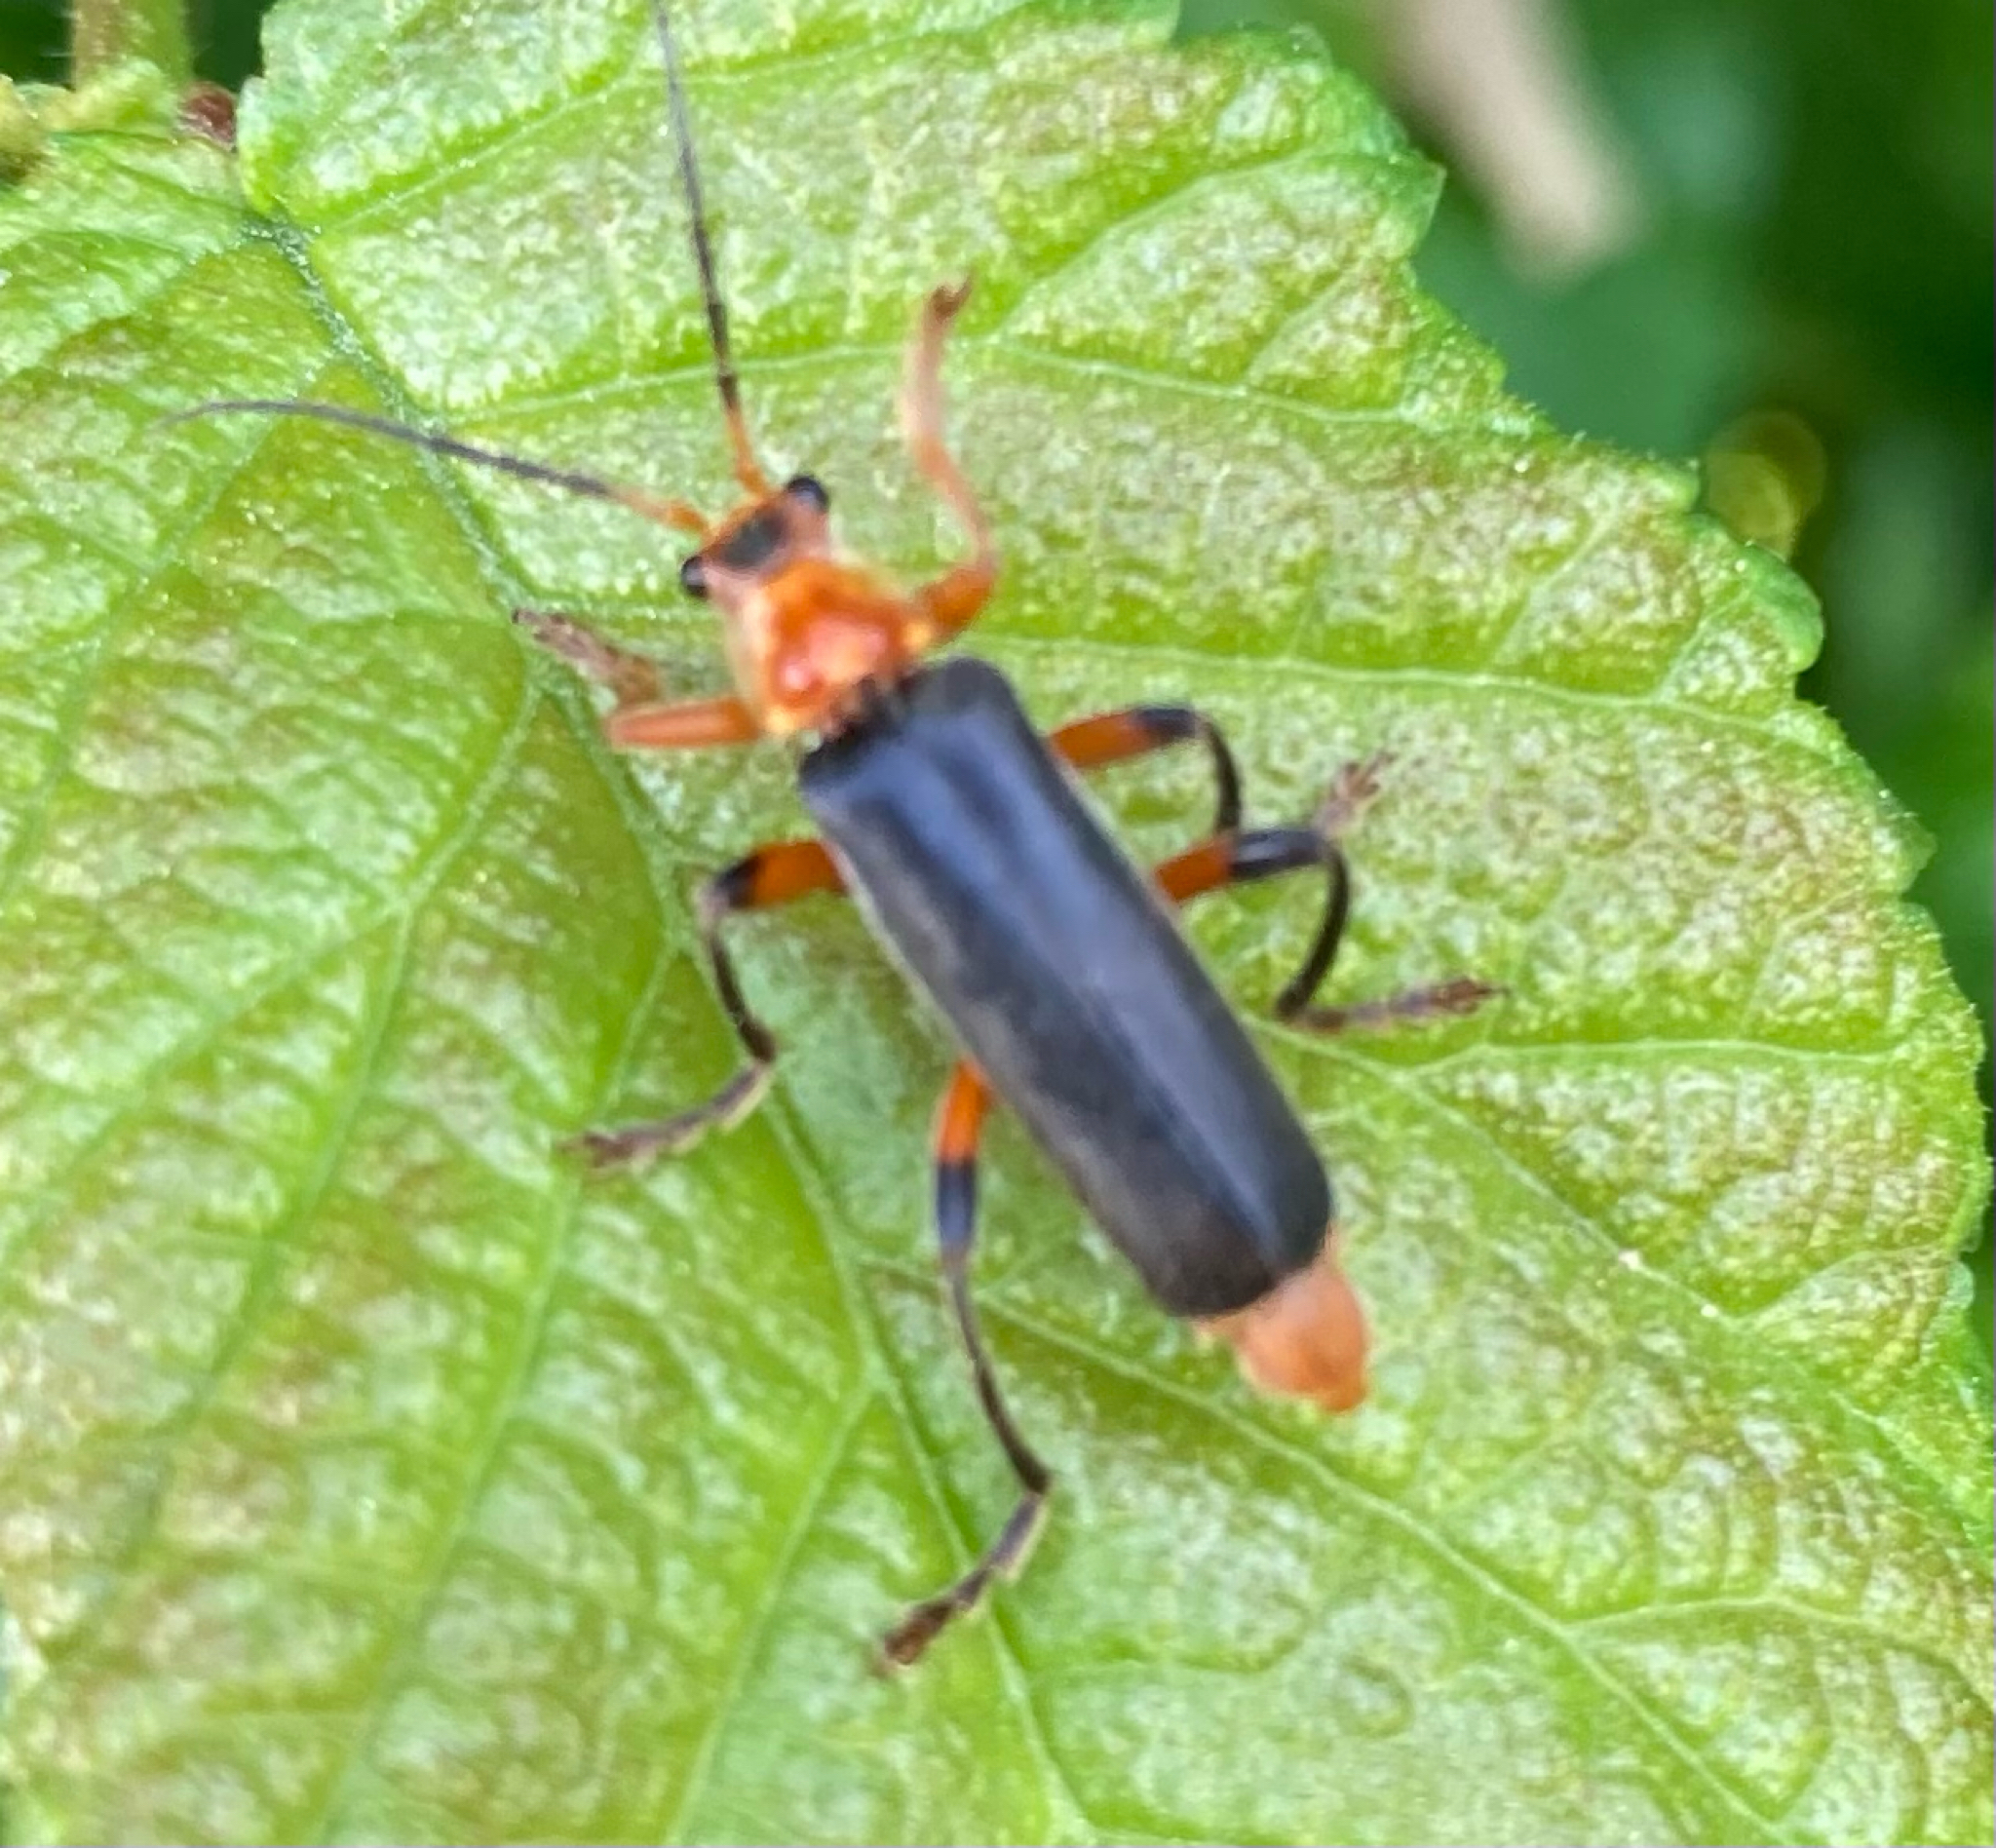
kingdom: Animalia
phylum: Arthropoda
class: Insecta
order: Coleoptera
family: Cantharidae
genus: Cantharis
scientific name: Cantharis livida
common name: Livid soldier beetle
